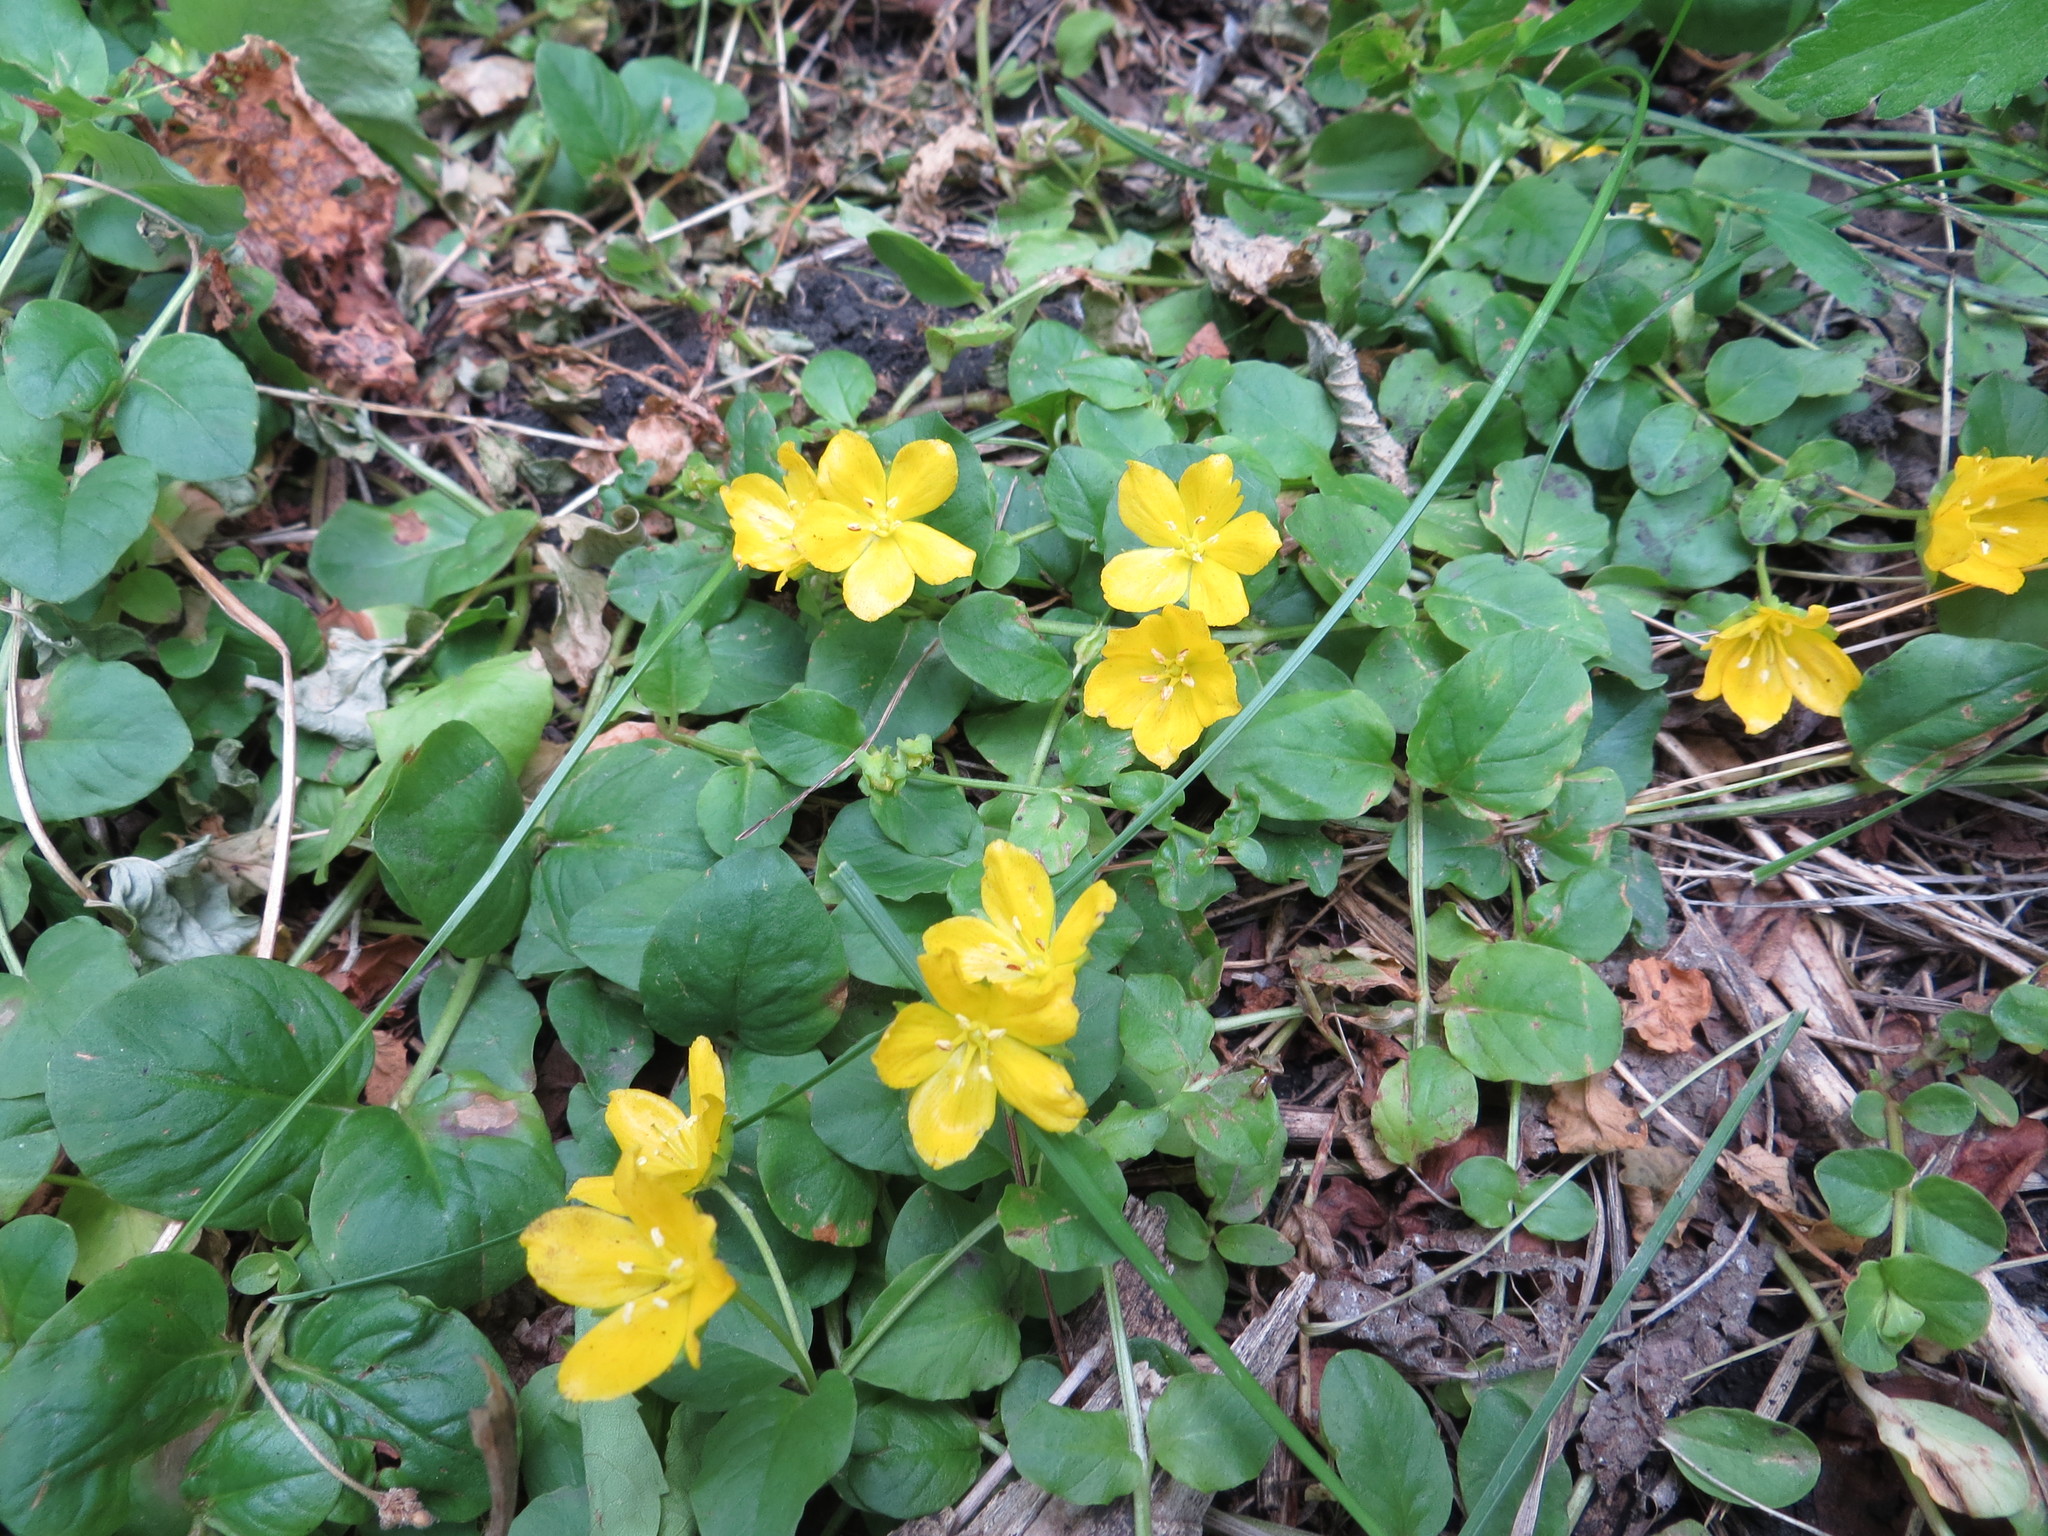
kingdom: Plantae
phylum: Tracheophyta
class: Magnoliopsida
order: Ericales
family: Primulaceae
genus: Lysimachia
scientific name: Lysimachia nummularia
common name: Moneywort
